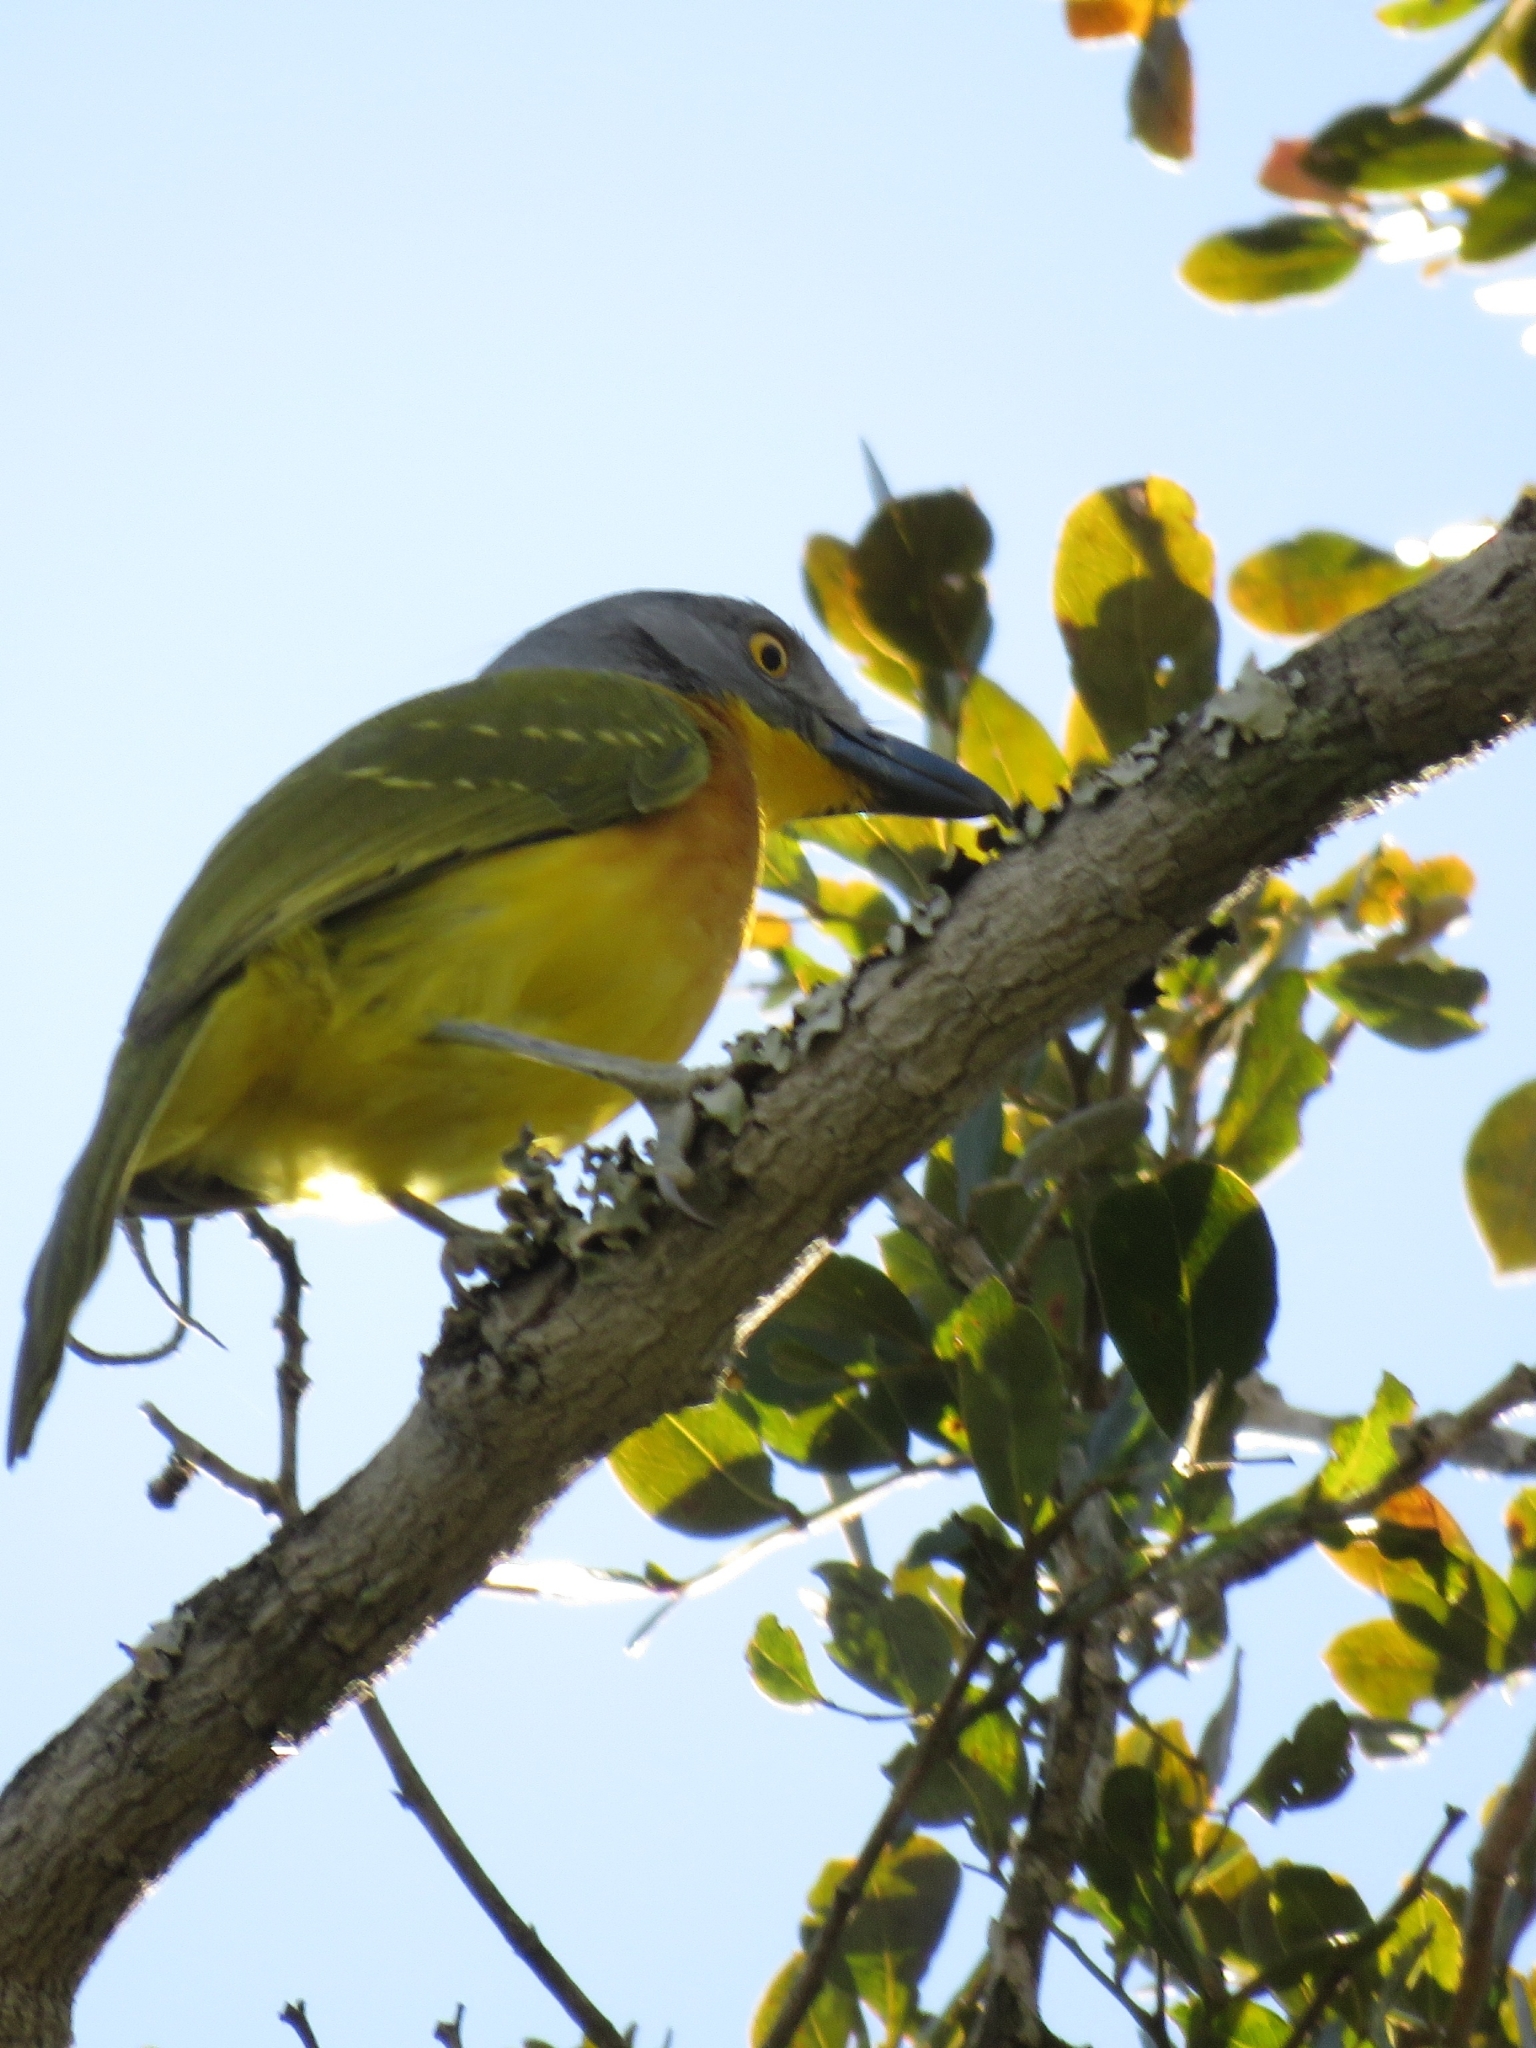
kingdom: Animalia
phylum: Chordata
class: Aves
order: Passeriformes
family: Malaconotidae
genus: Malaconotus
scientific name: Malaconotus blanchoti
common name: Grey-headed bushshrike
